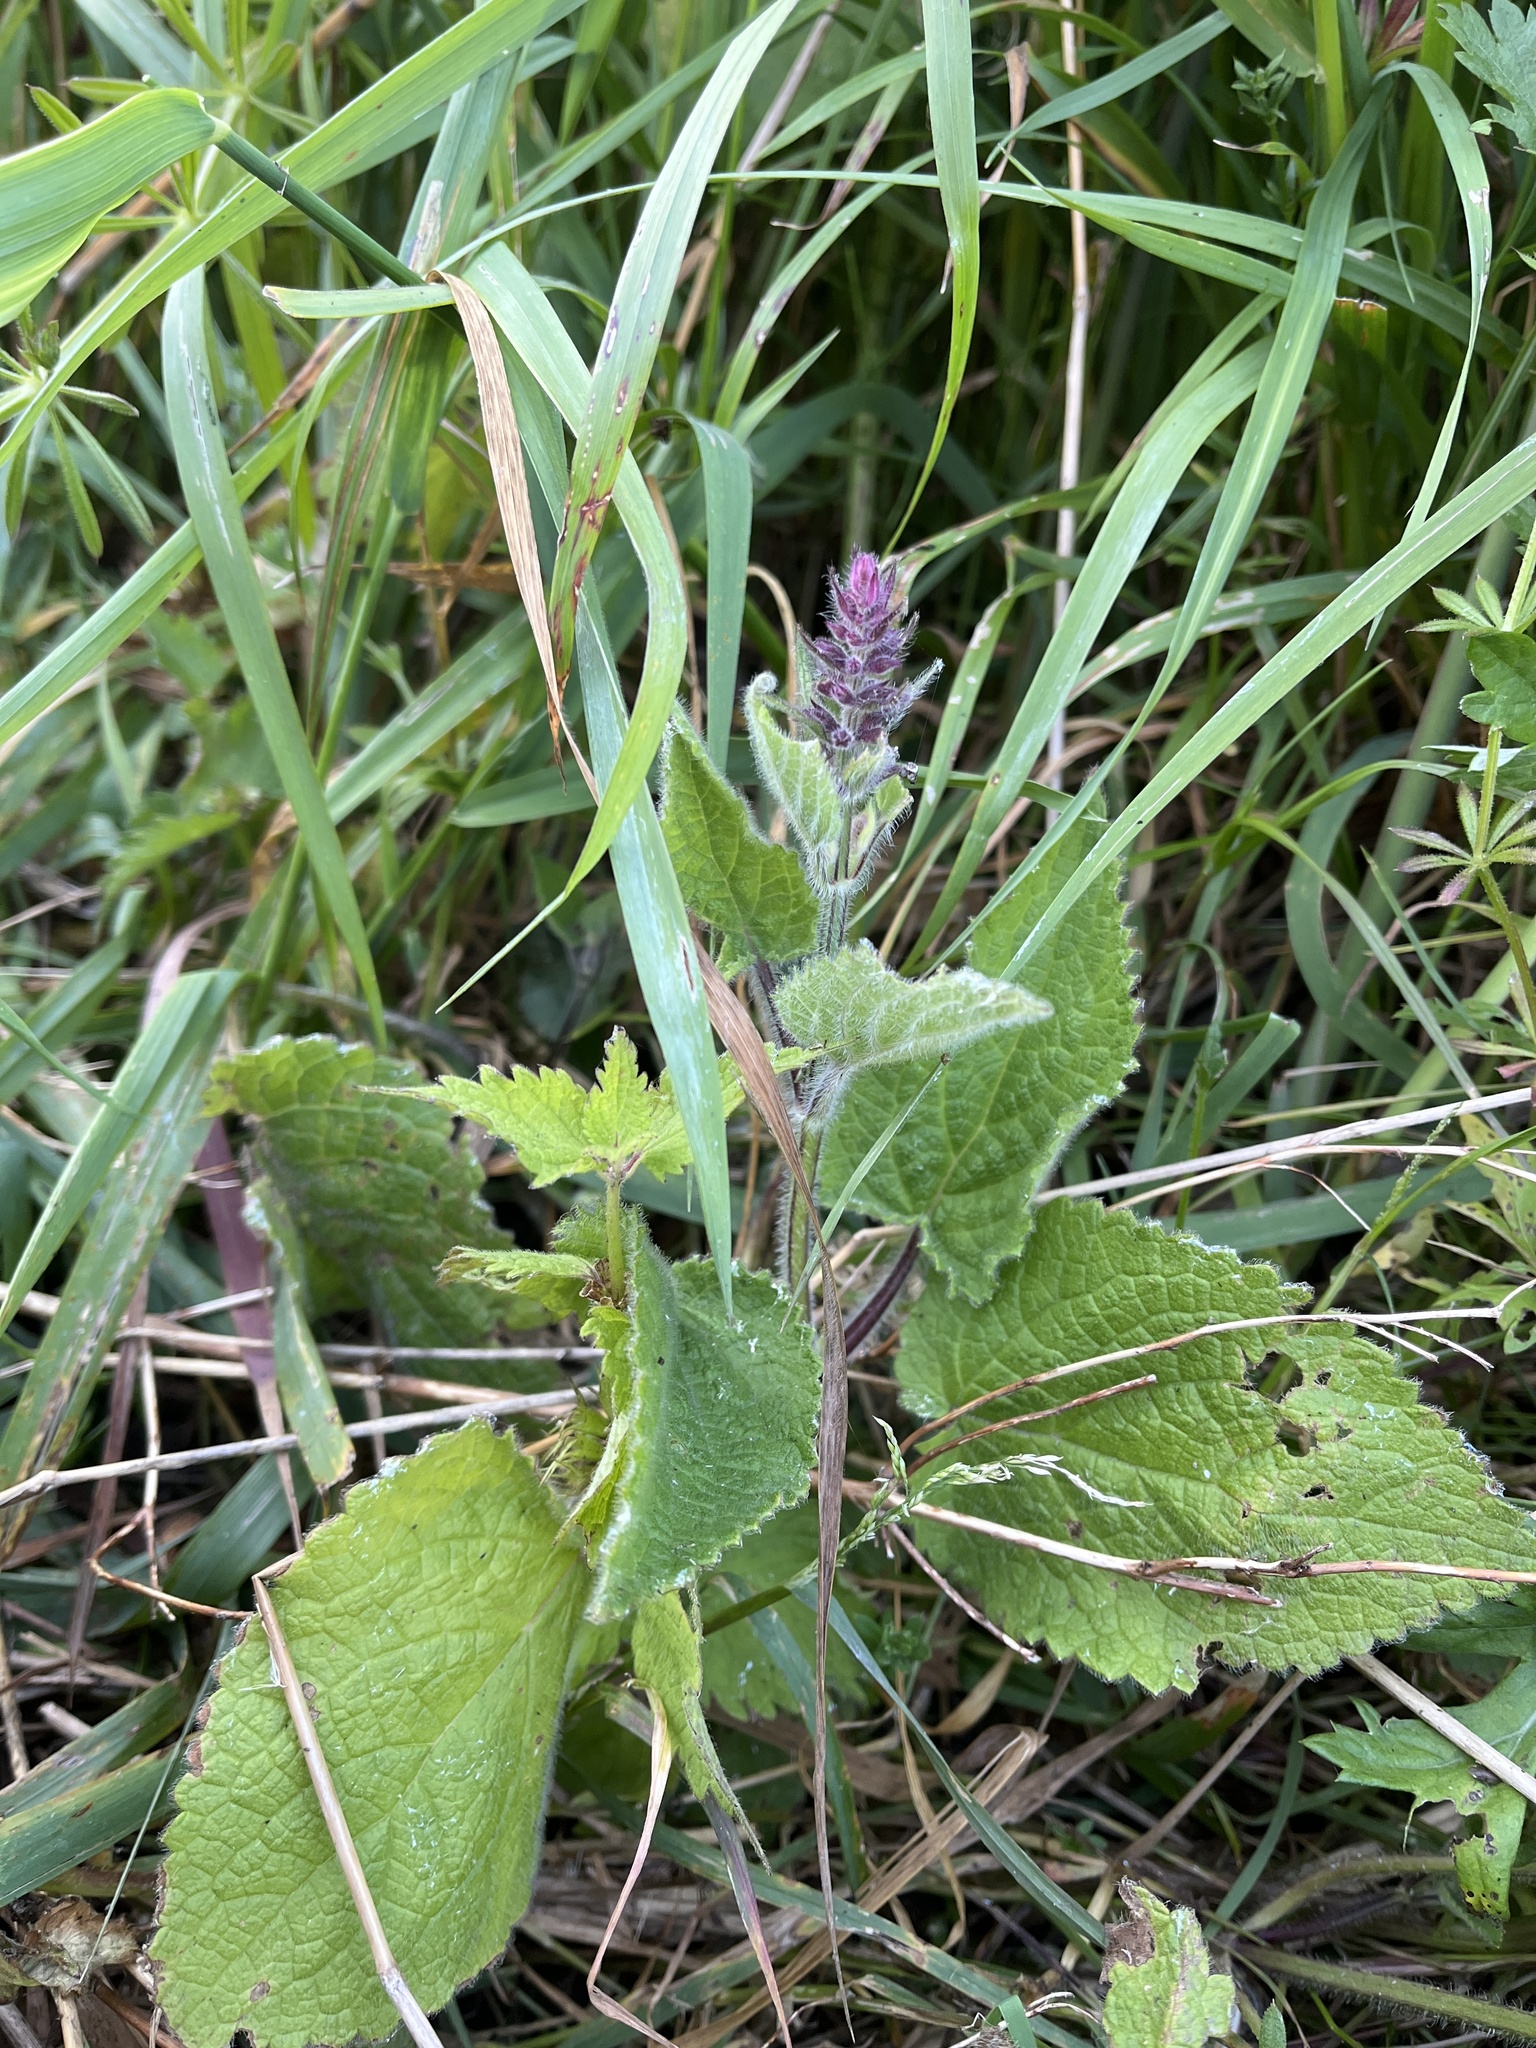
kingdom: Plantae
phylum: Tracheophyta
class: Magnoliopsida
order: Lamiales
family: Lamiaceae
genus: Stachys
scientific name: Stachys sylvatica
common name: Hedge woundwort
